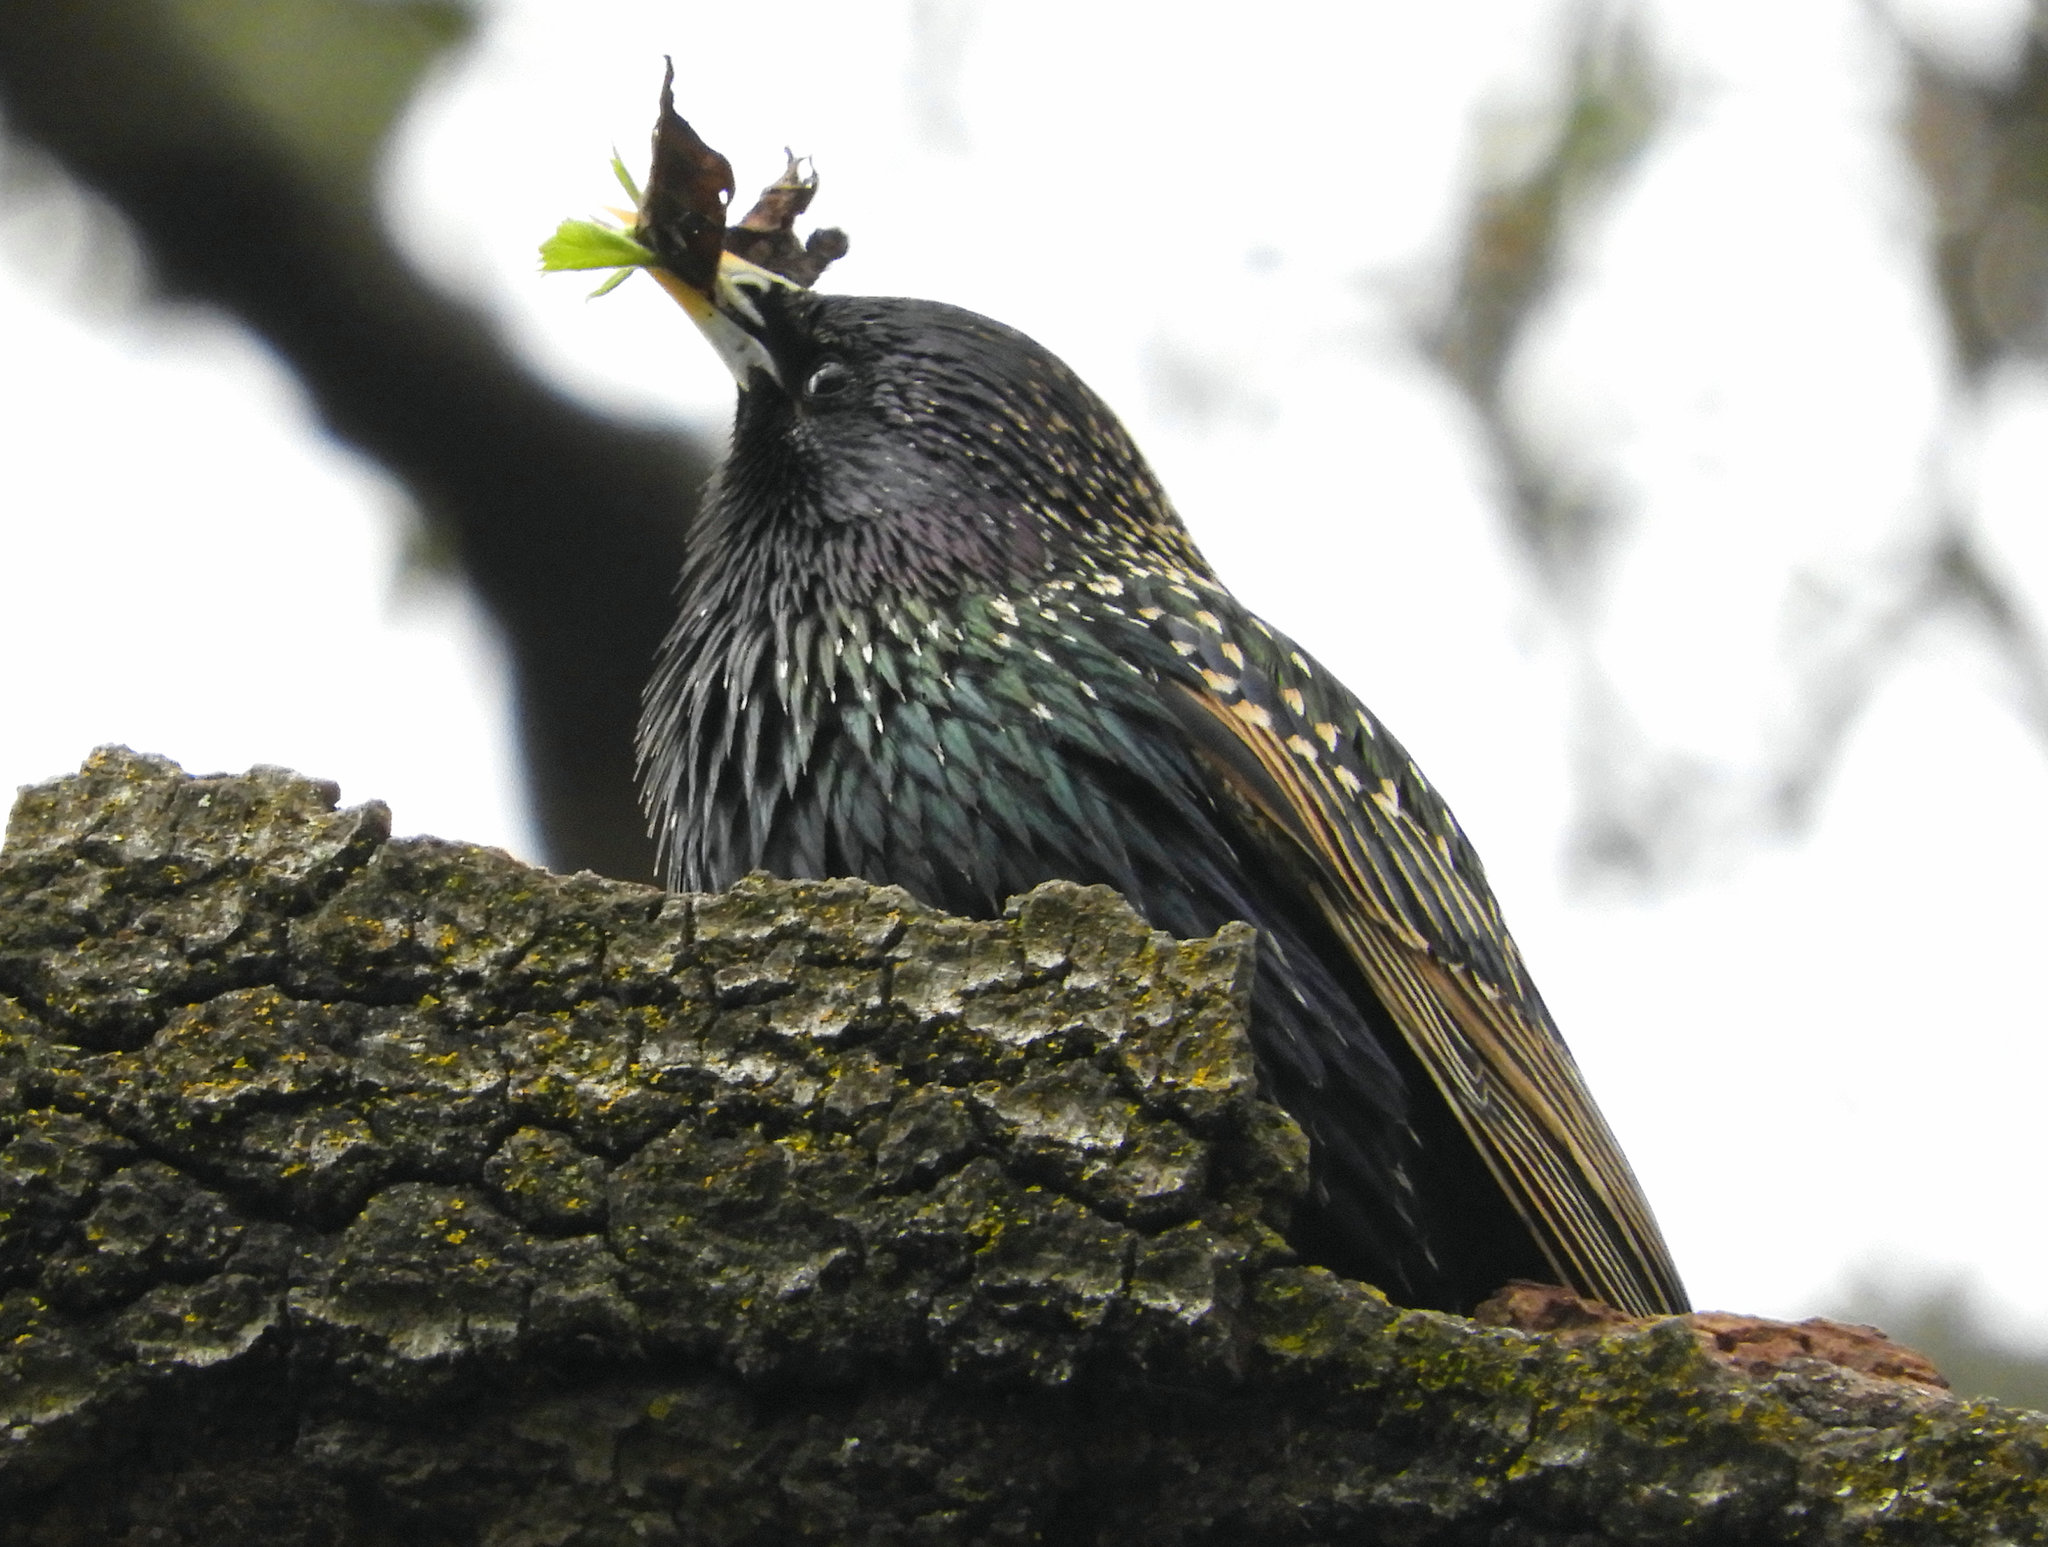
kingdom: Animalia
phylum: Chordata
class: Aves
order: Passeriformes
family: Sturnidae
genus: Sturnus
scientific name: Sturnus vulgaris
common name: Common starling
